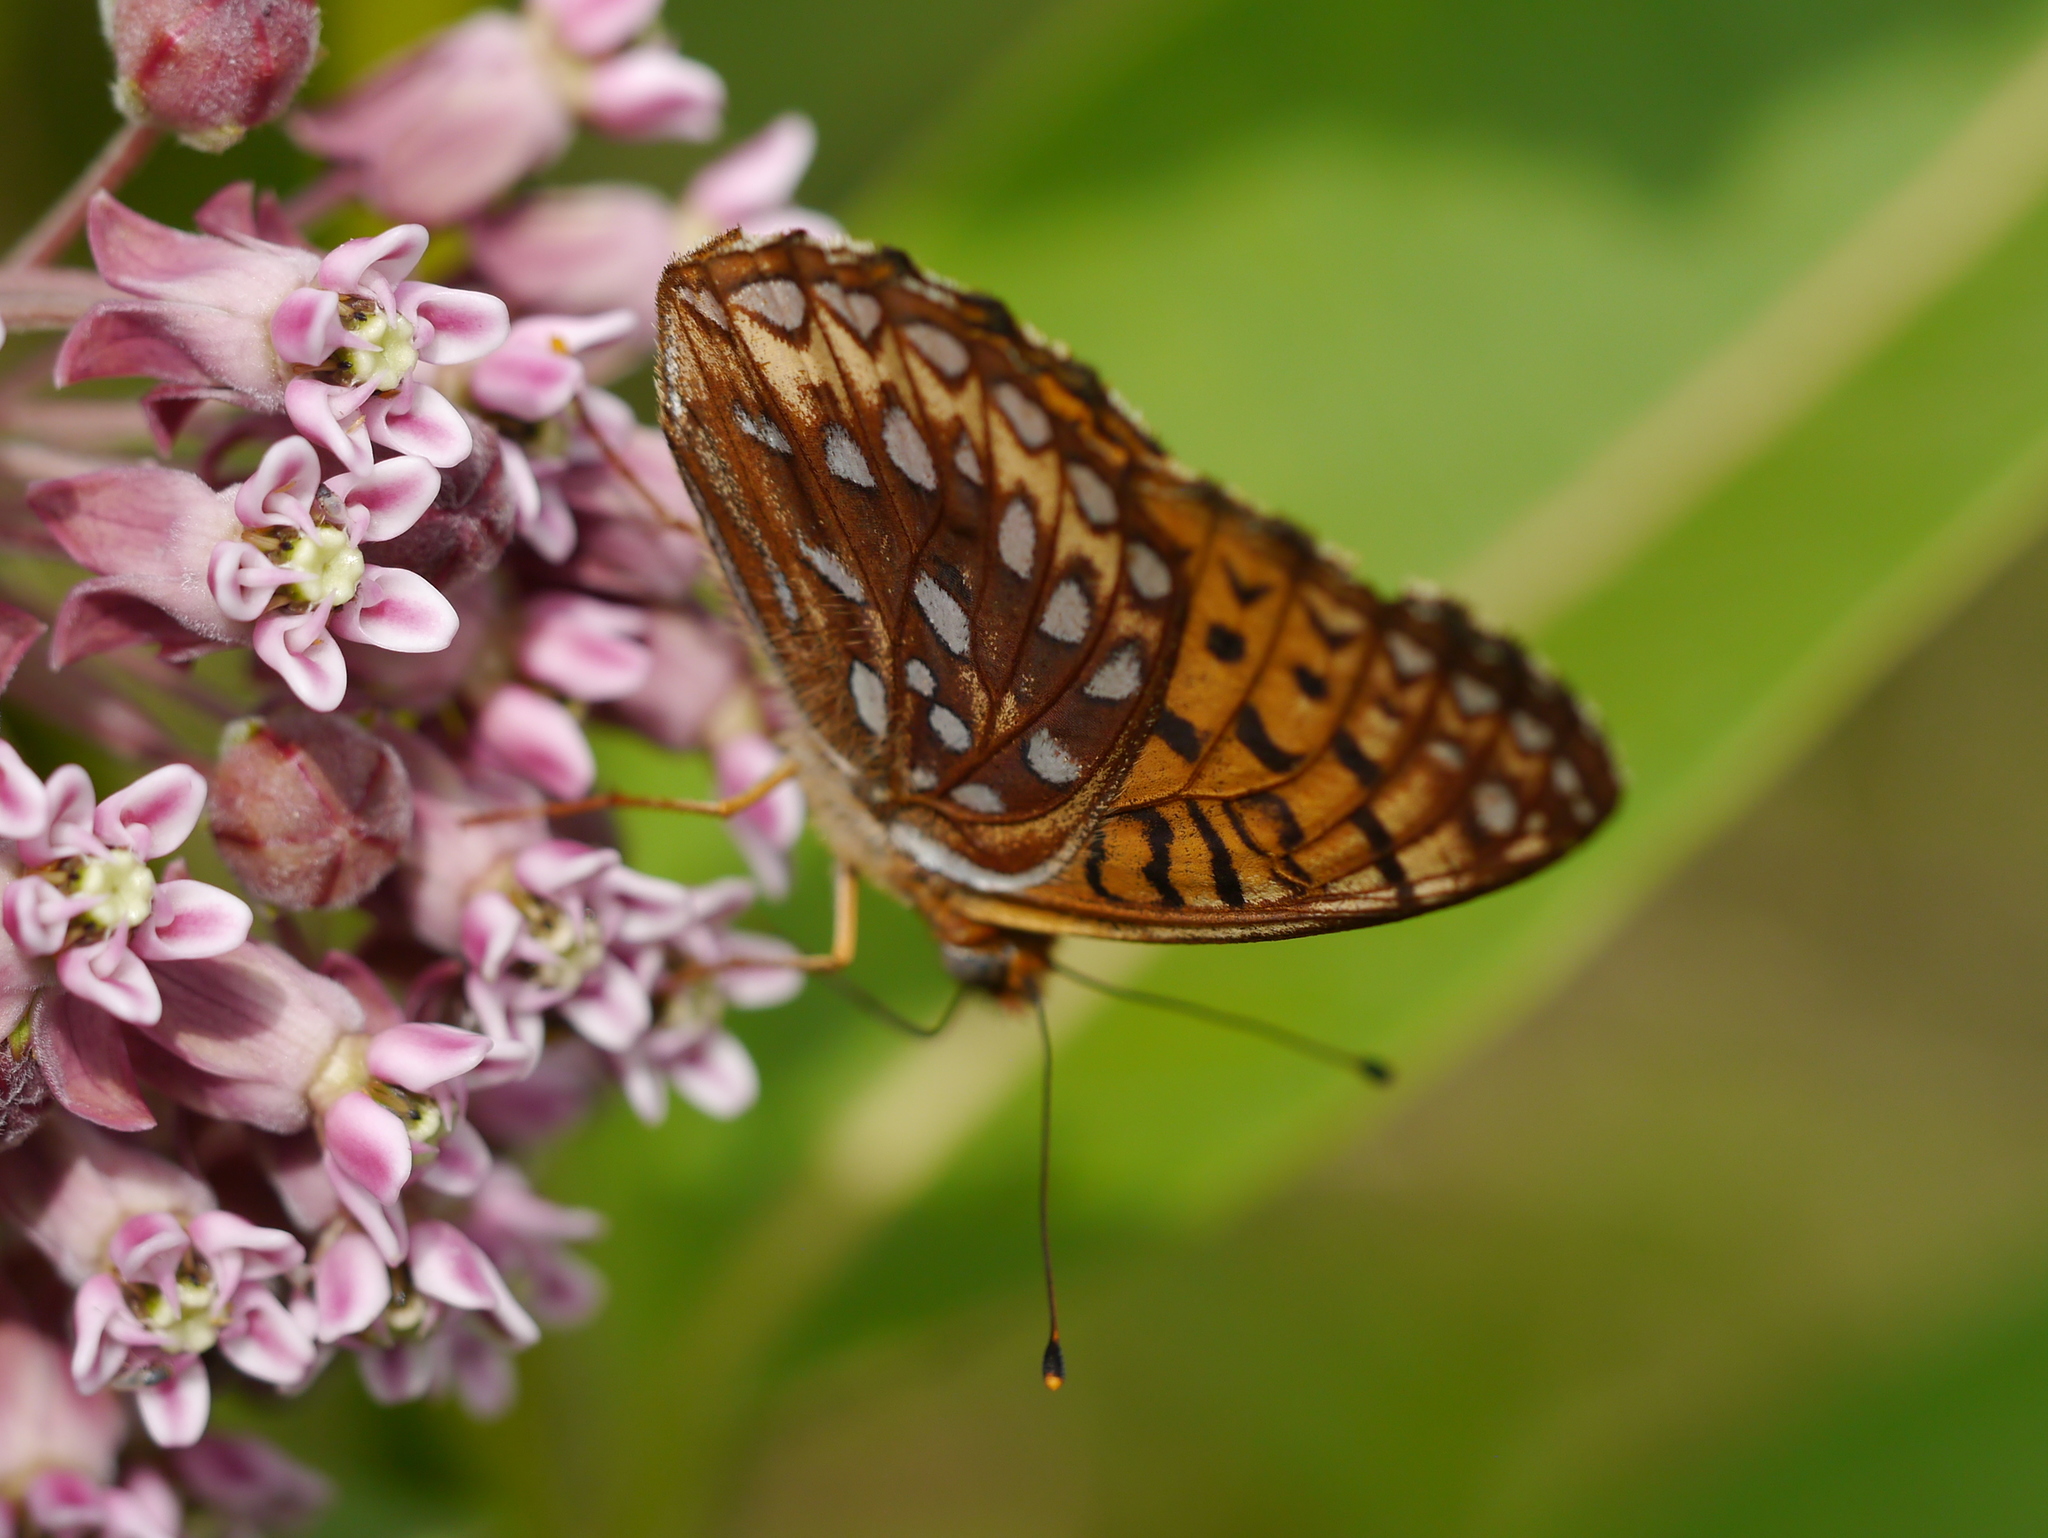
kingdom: Animalia
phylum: Arthropoda
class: Insecta
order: Lepidoptera
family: Nymphalidae
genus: Speyeria
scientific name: Speyeria atlantis
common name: Atlantis fritillary
